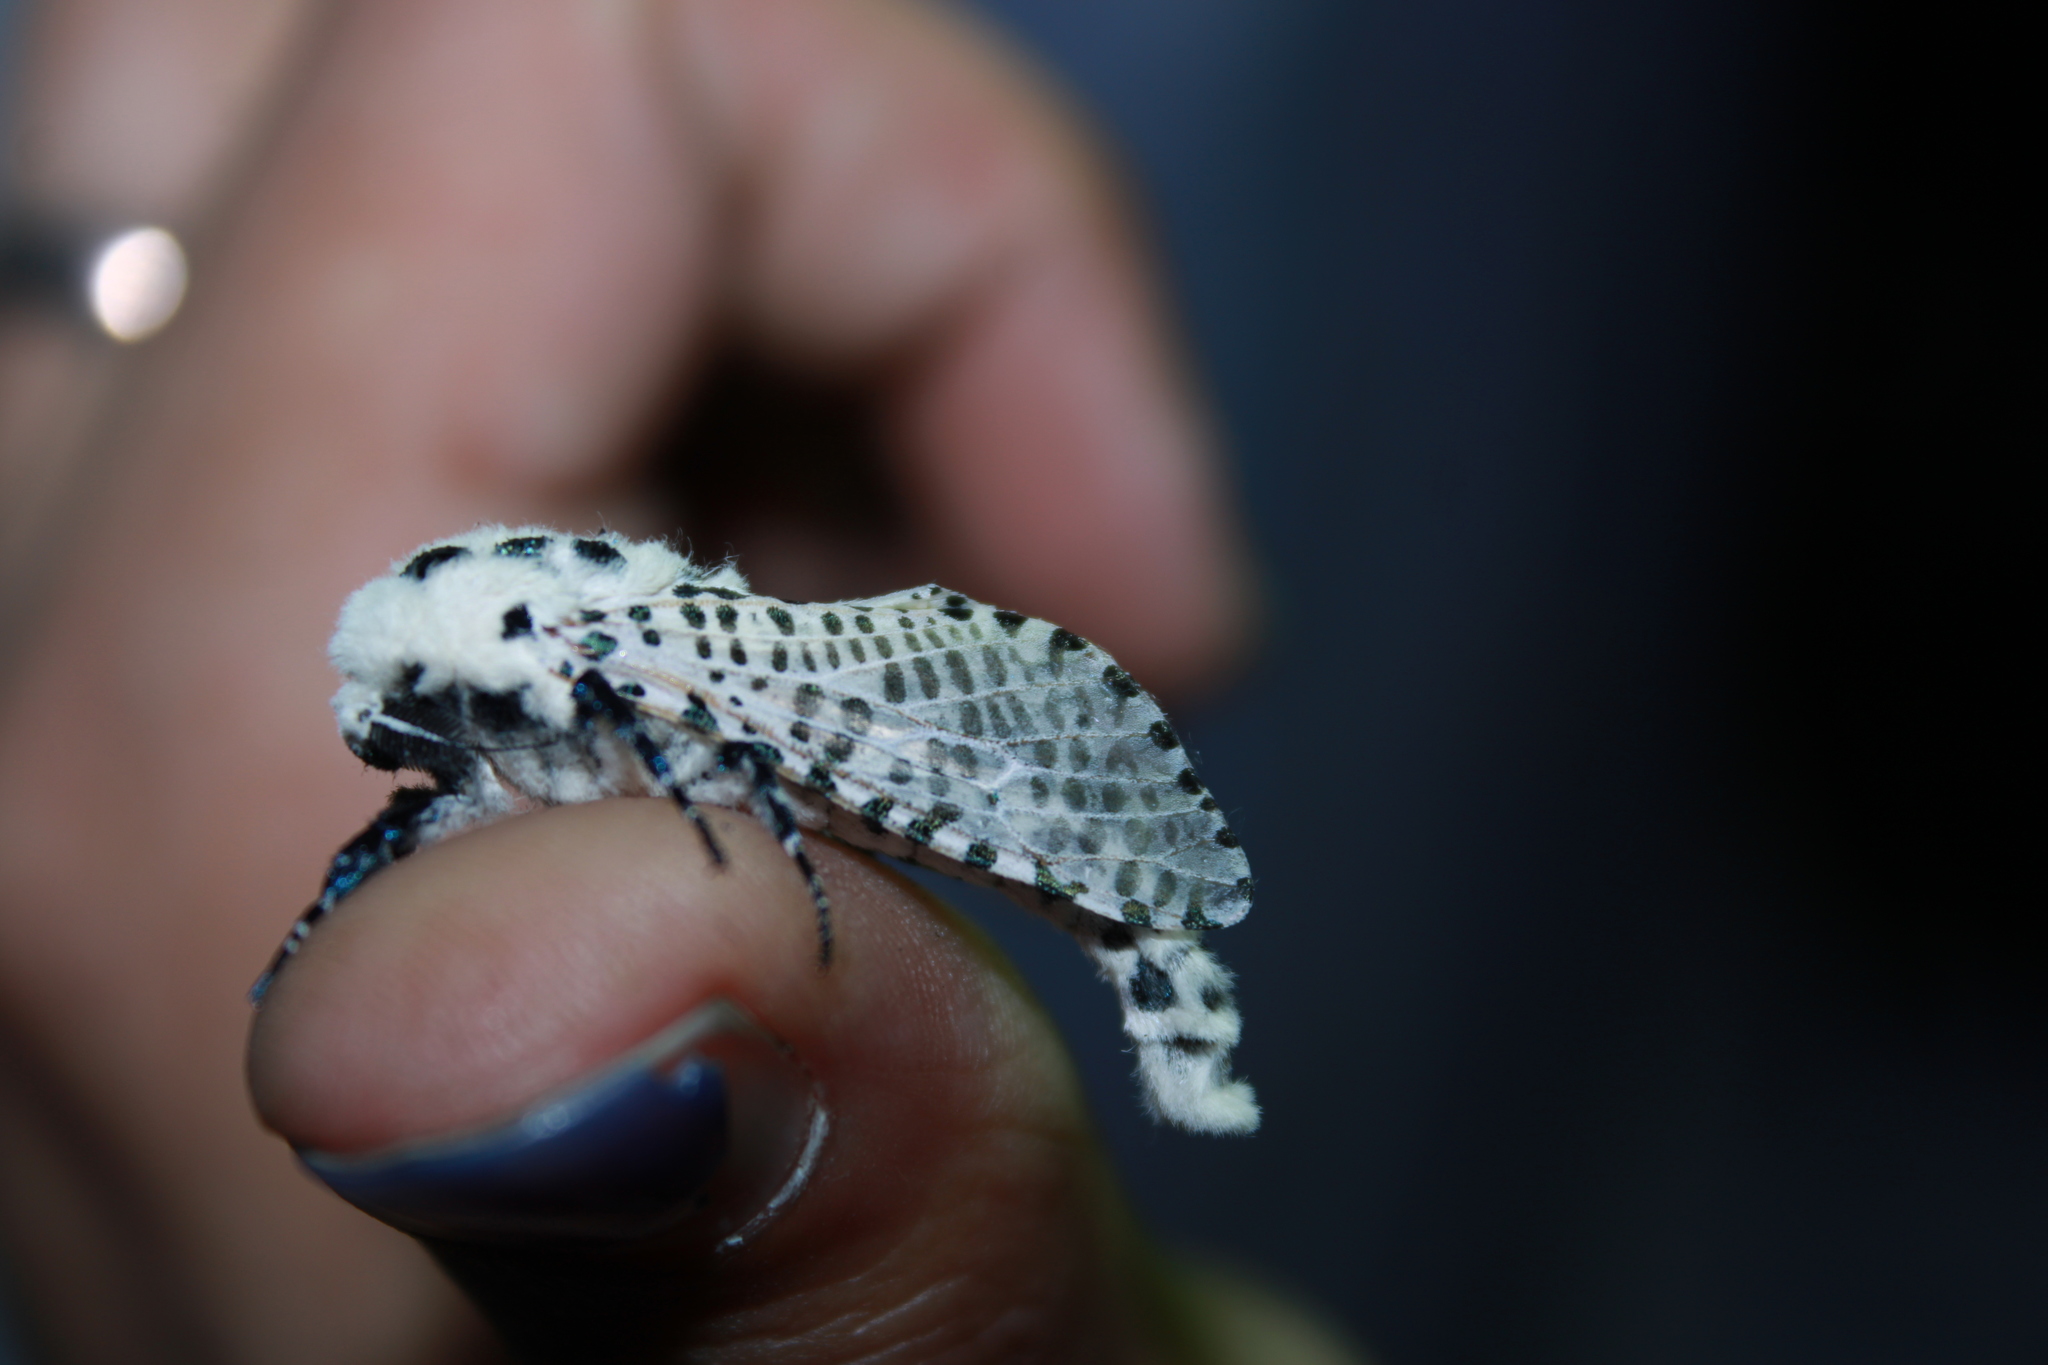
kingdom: Animalia
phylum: Arthropoda
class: Insecta
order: Lepidoptera
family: Cossidae
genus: Zeuzera
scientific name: Zeuzera pyrina
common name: Leopard moth
